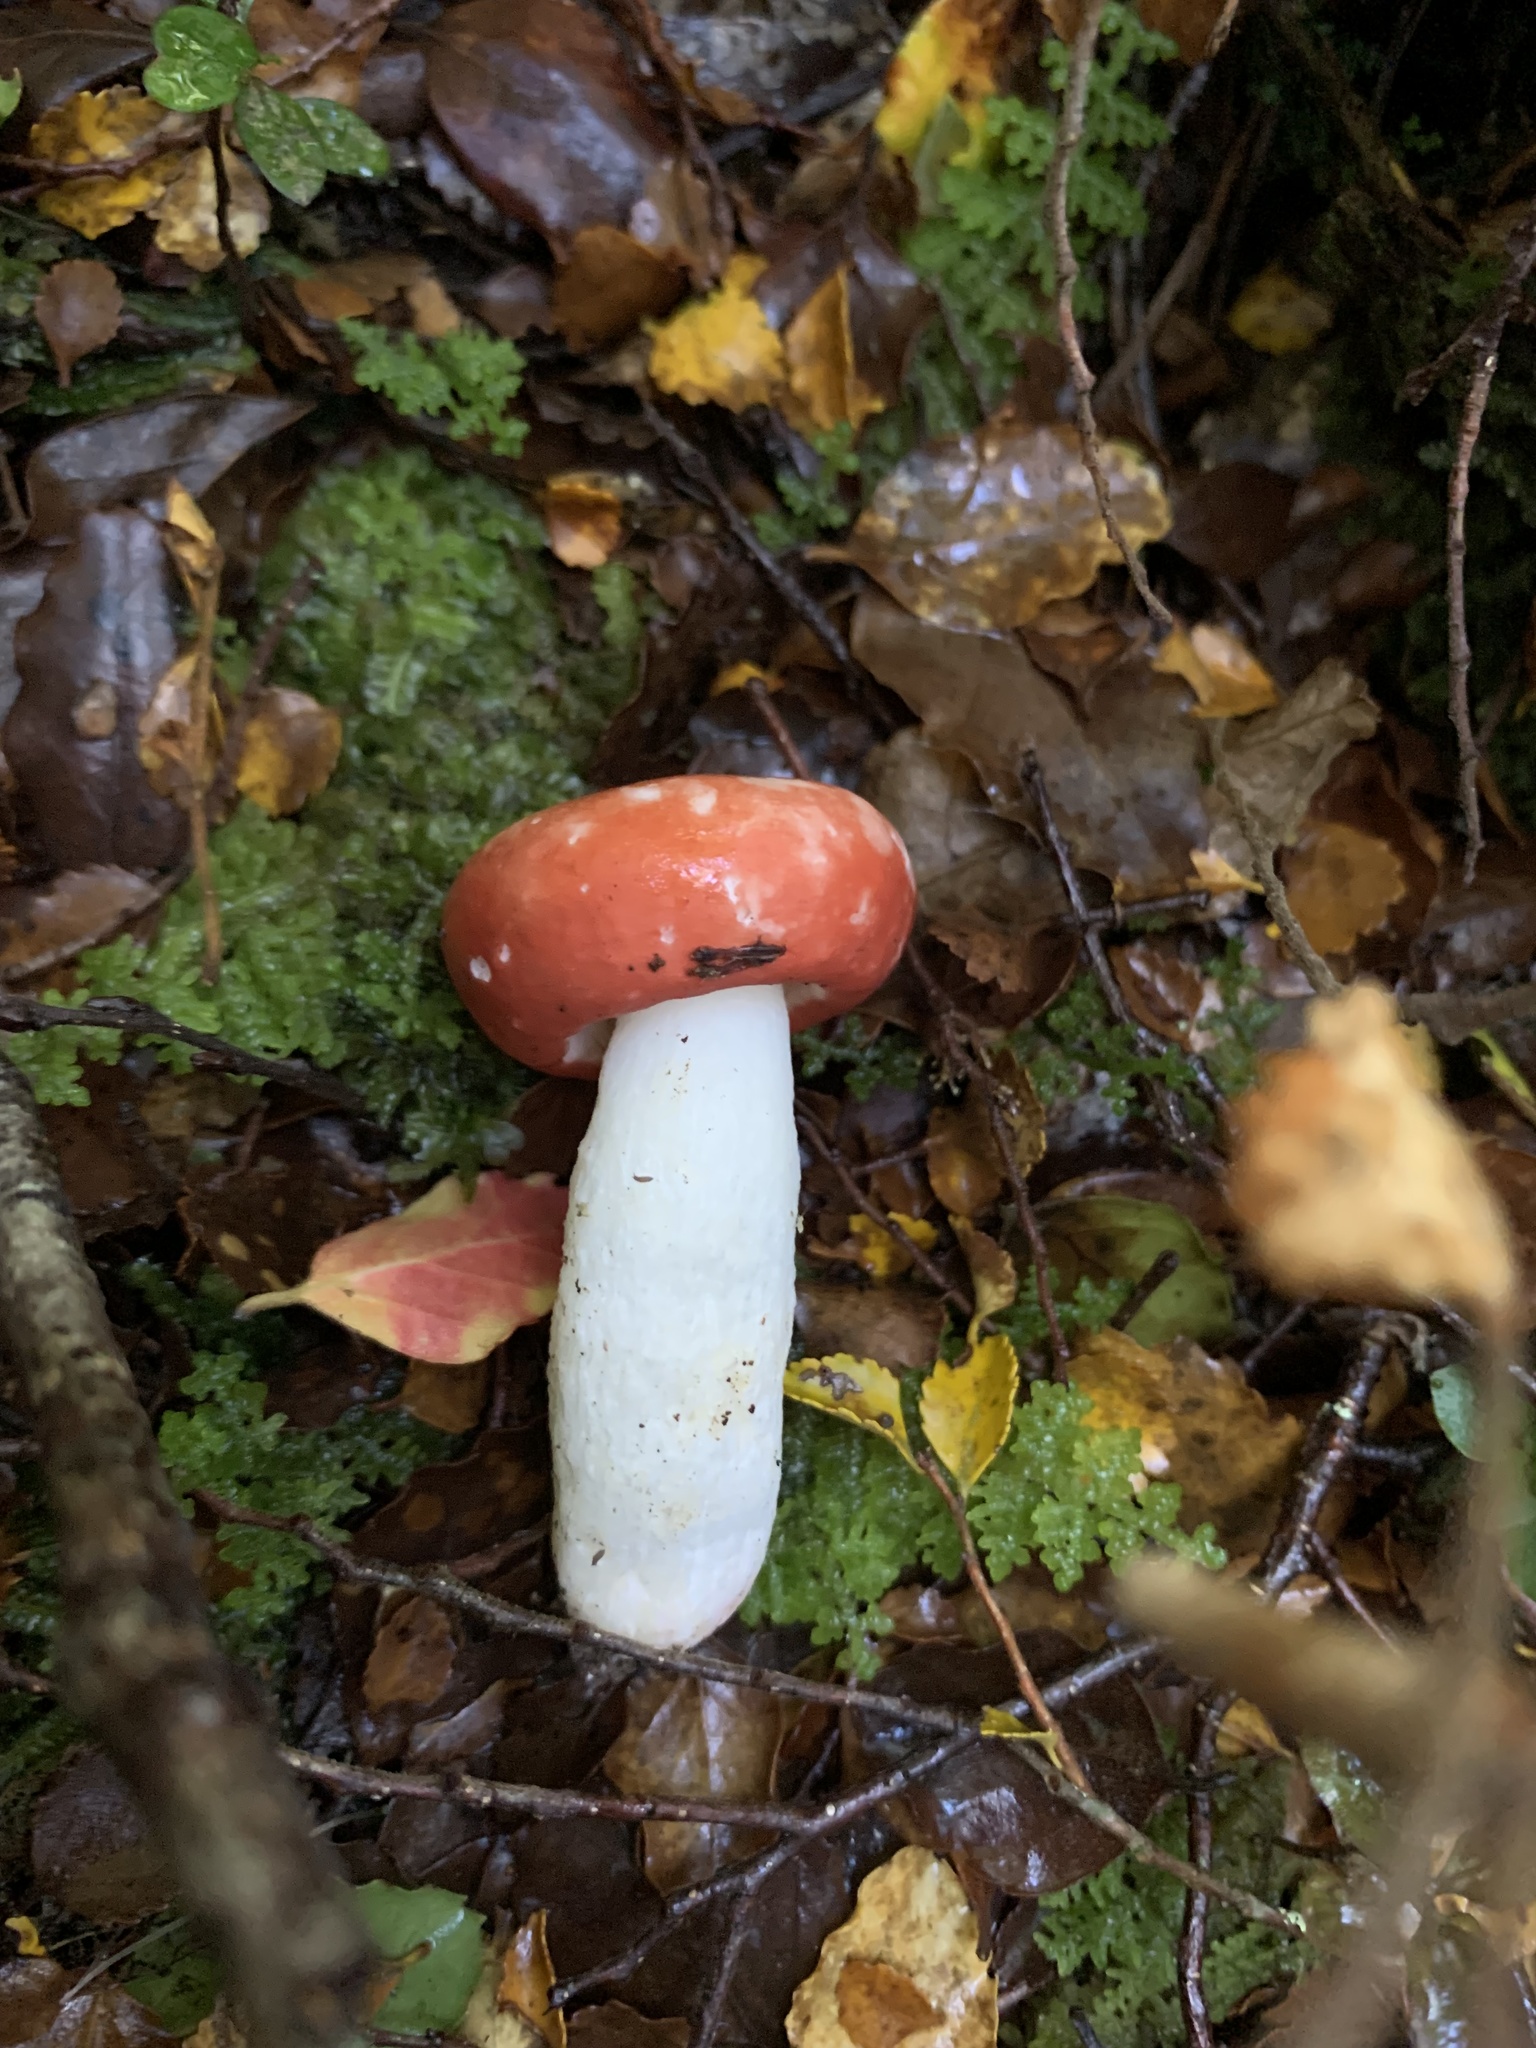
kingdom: Fungi
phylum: Basidiomycota
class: Agaricomycetes
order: Russulales
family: Russulaceae
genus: Russula
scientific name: Russula kermesina
